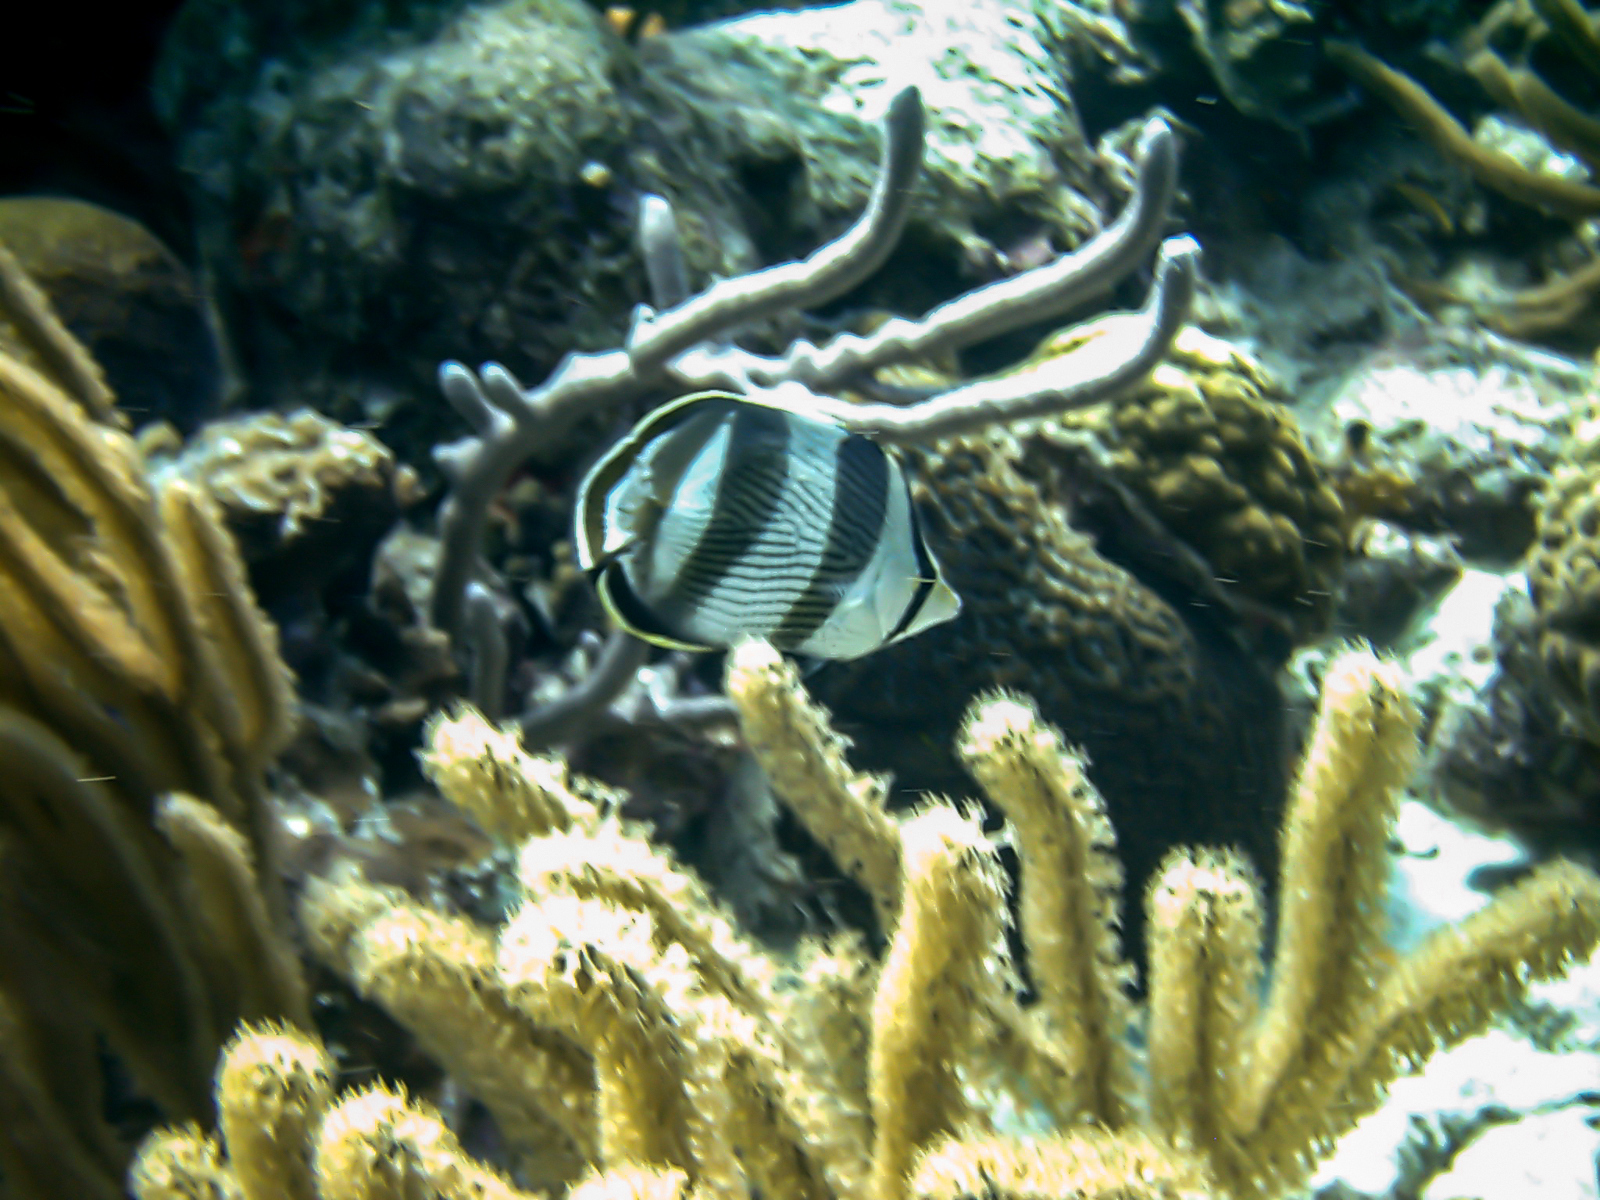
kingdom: Animalia
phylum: Chordata
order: Perciformes
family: Chaetodontidae
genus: Chaetodon
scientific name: Chaetodon striatus
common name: Banded butterflyfish
